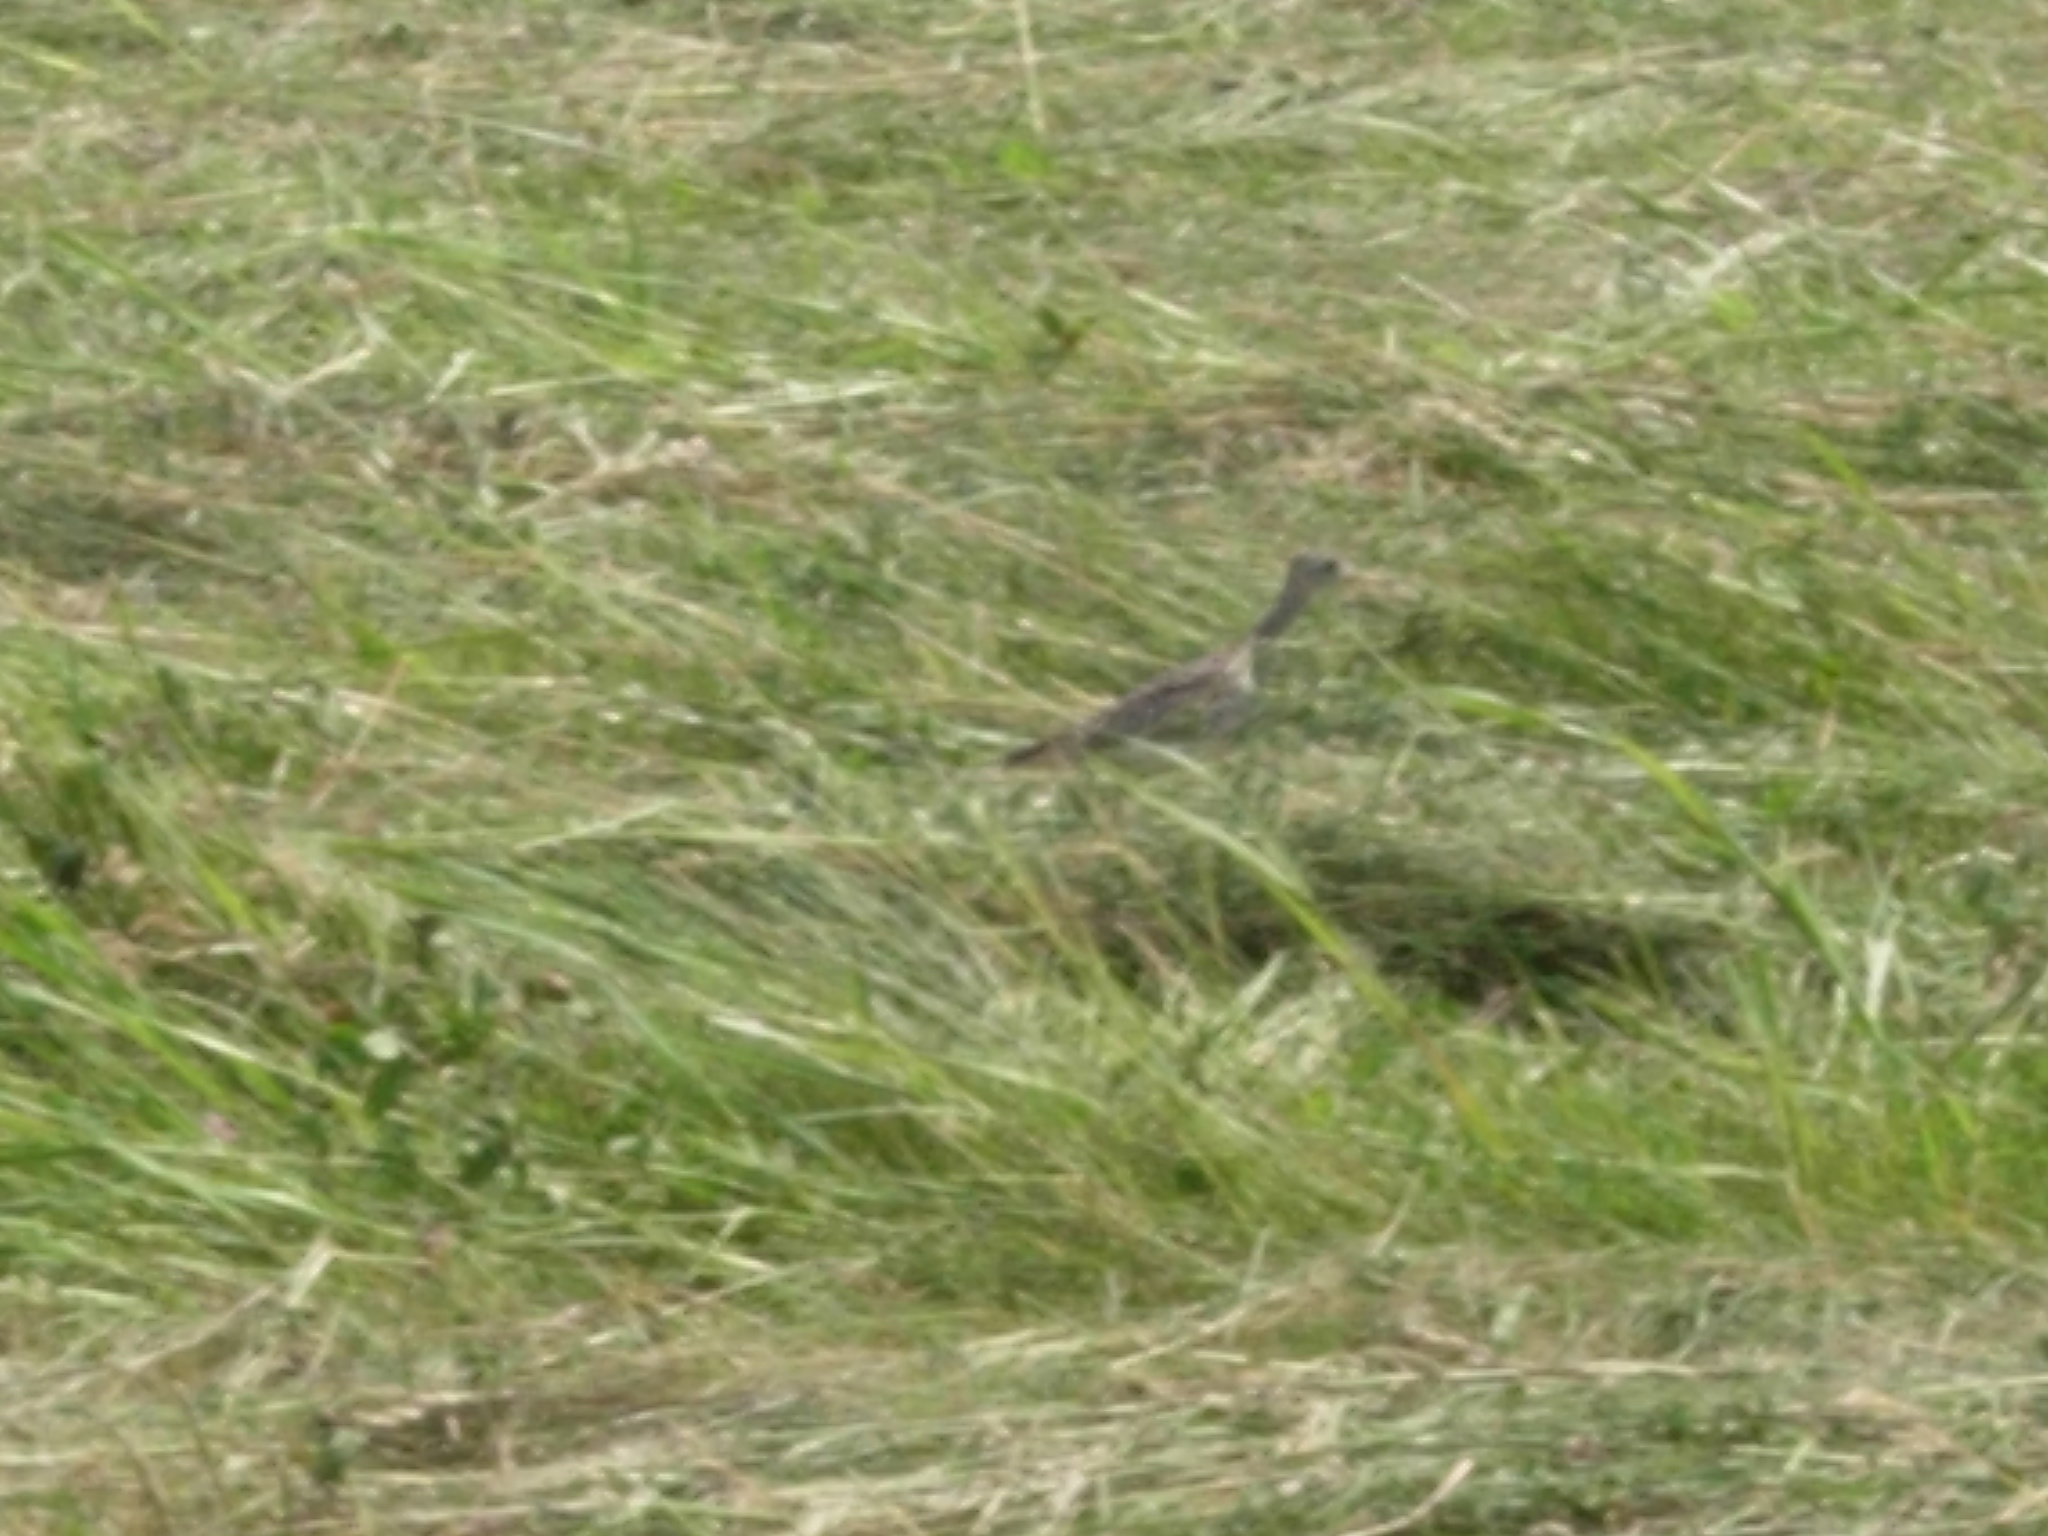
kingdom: Animalia
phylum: Chordata
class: Aves
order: Charadriiformes
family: Scolopacidae
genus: Bartramia
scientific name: Bartramia longicauda
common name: Upland sandpiper
